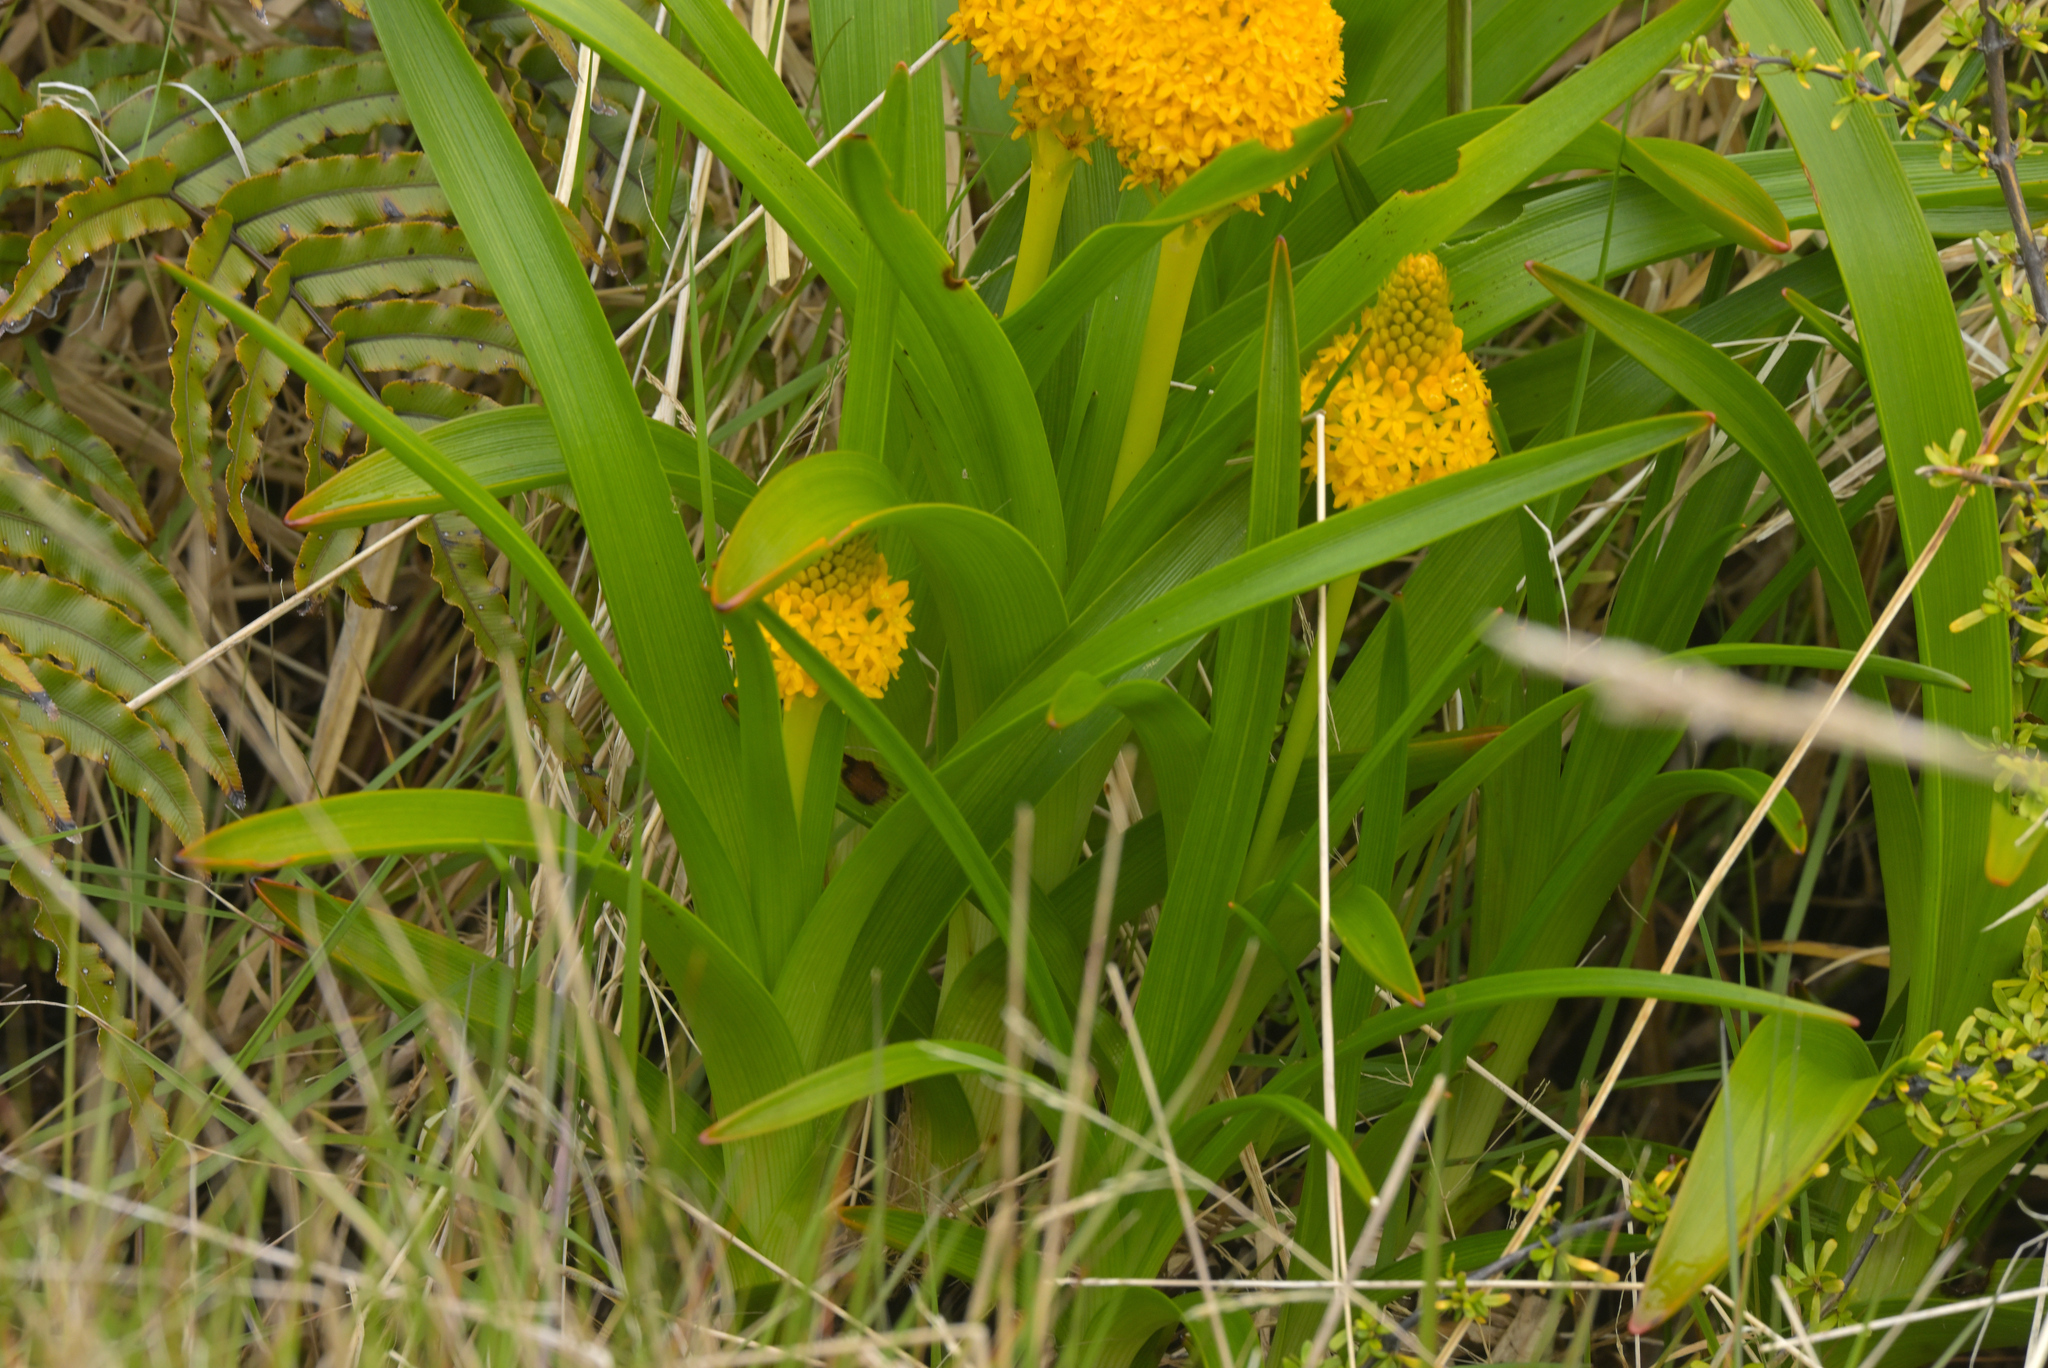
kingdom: Plantae
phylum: Tracheophyta
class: Liliopsida
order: Asparagales
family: Asphodelaceae
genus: Bulbinella
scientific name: Bulbinella rossii
